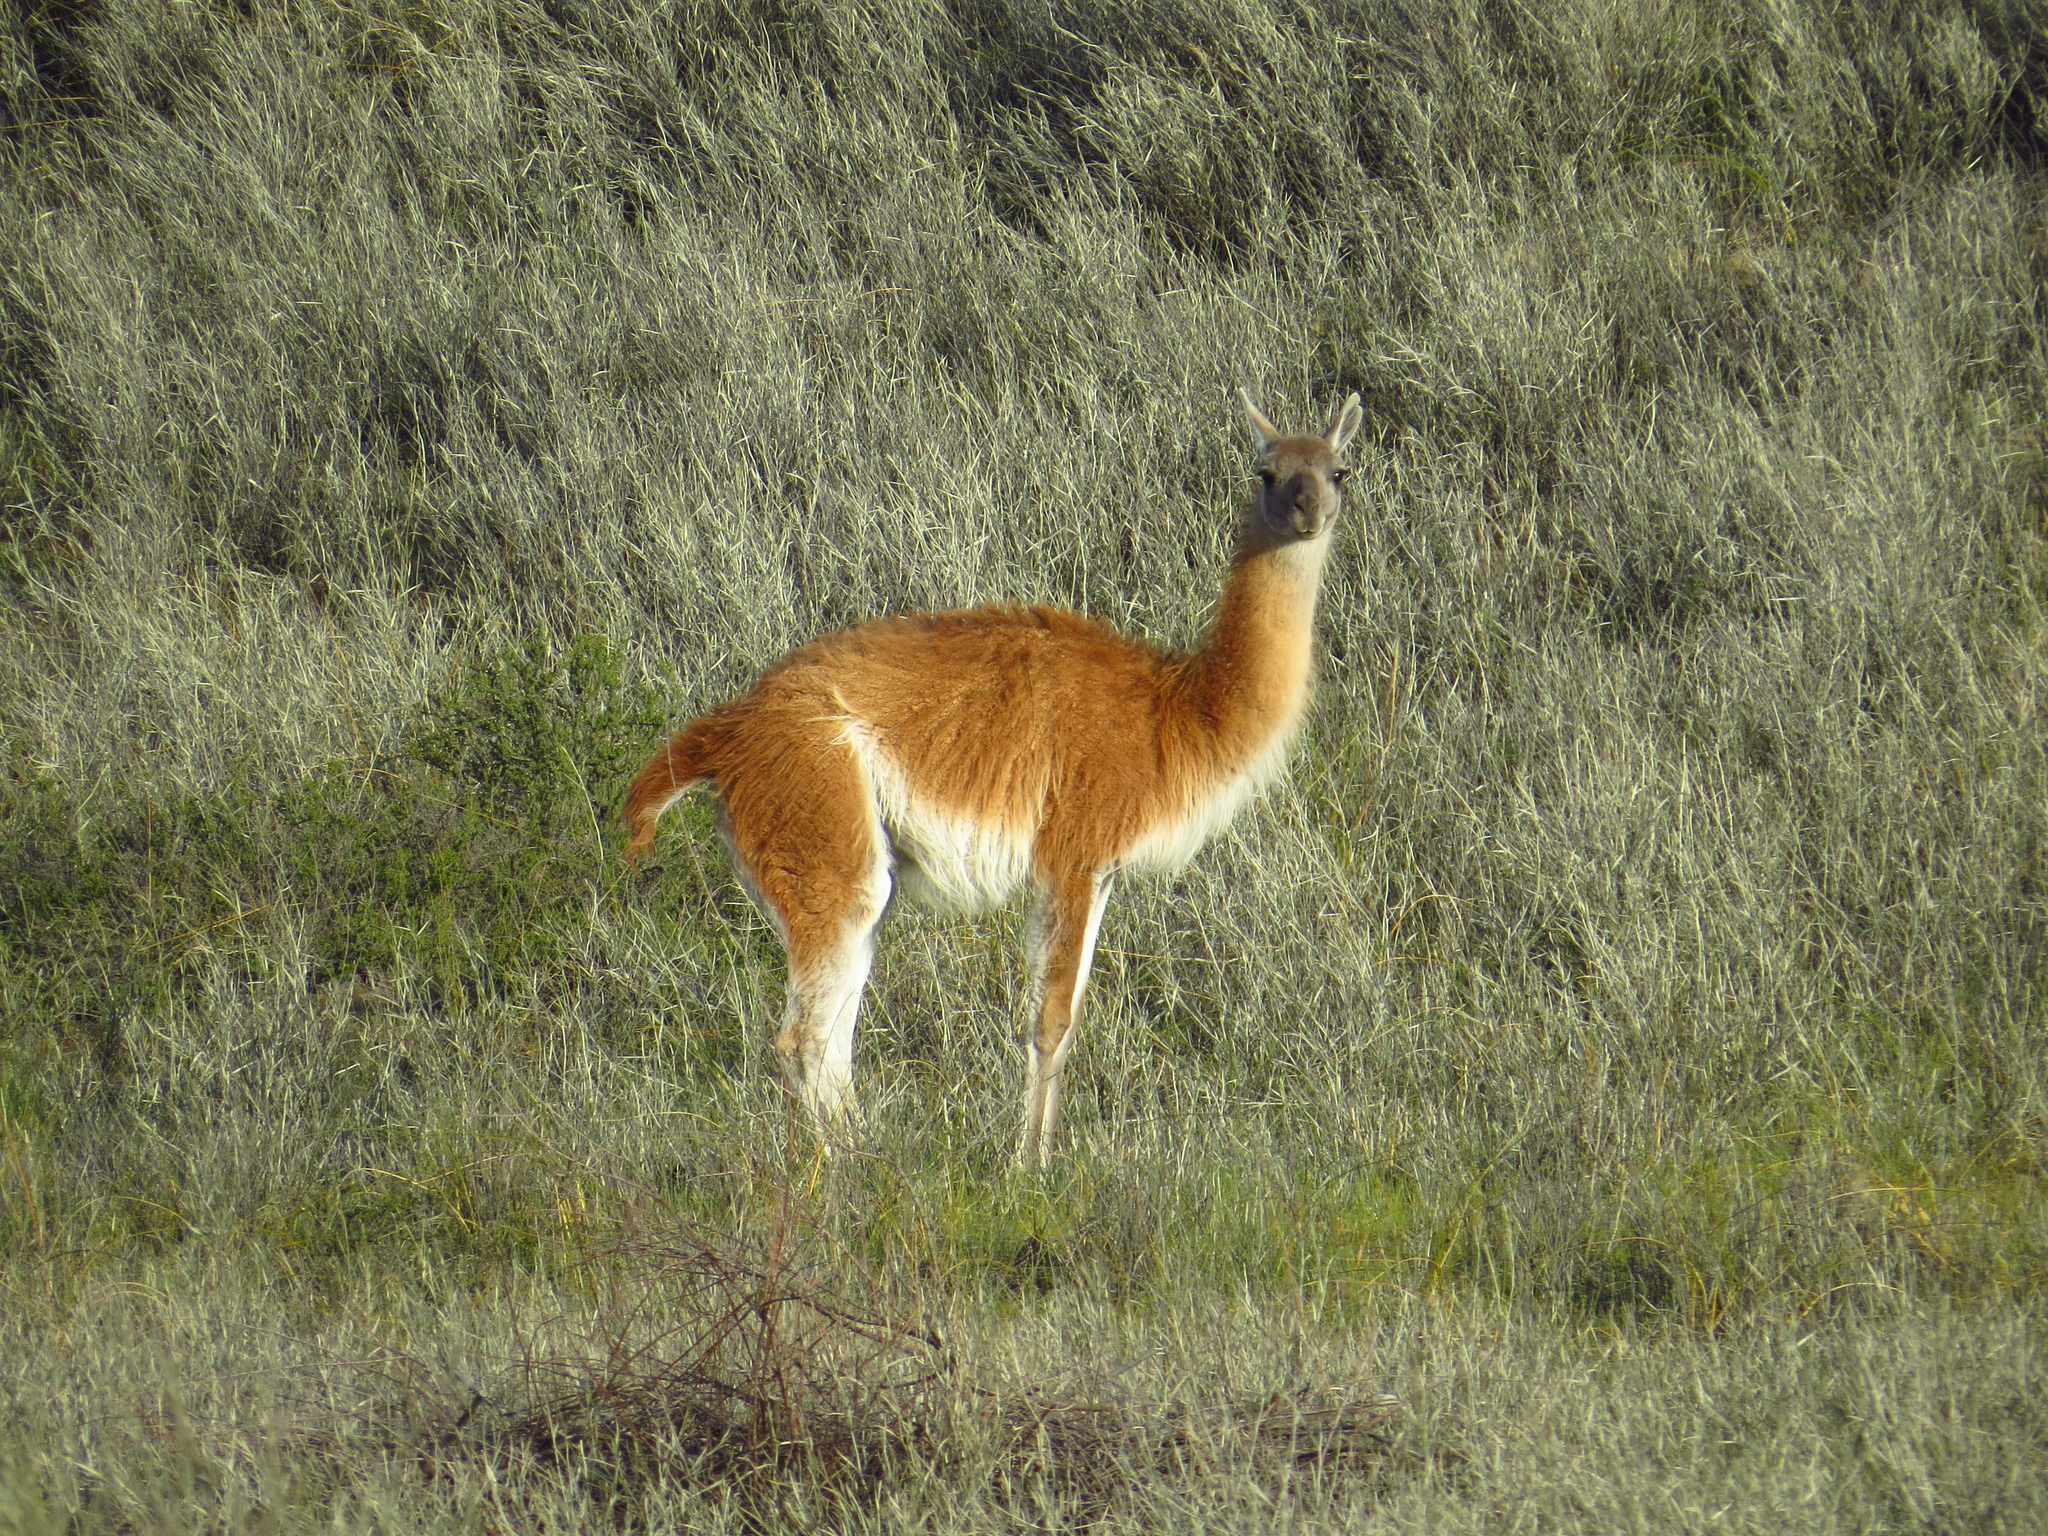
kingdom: Animalia
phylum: Chordata
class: Mammalia
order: Artiodactyla
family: Camelidae
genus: Lama
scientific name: Lama glama
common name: Llama
